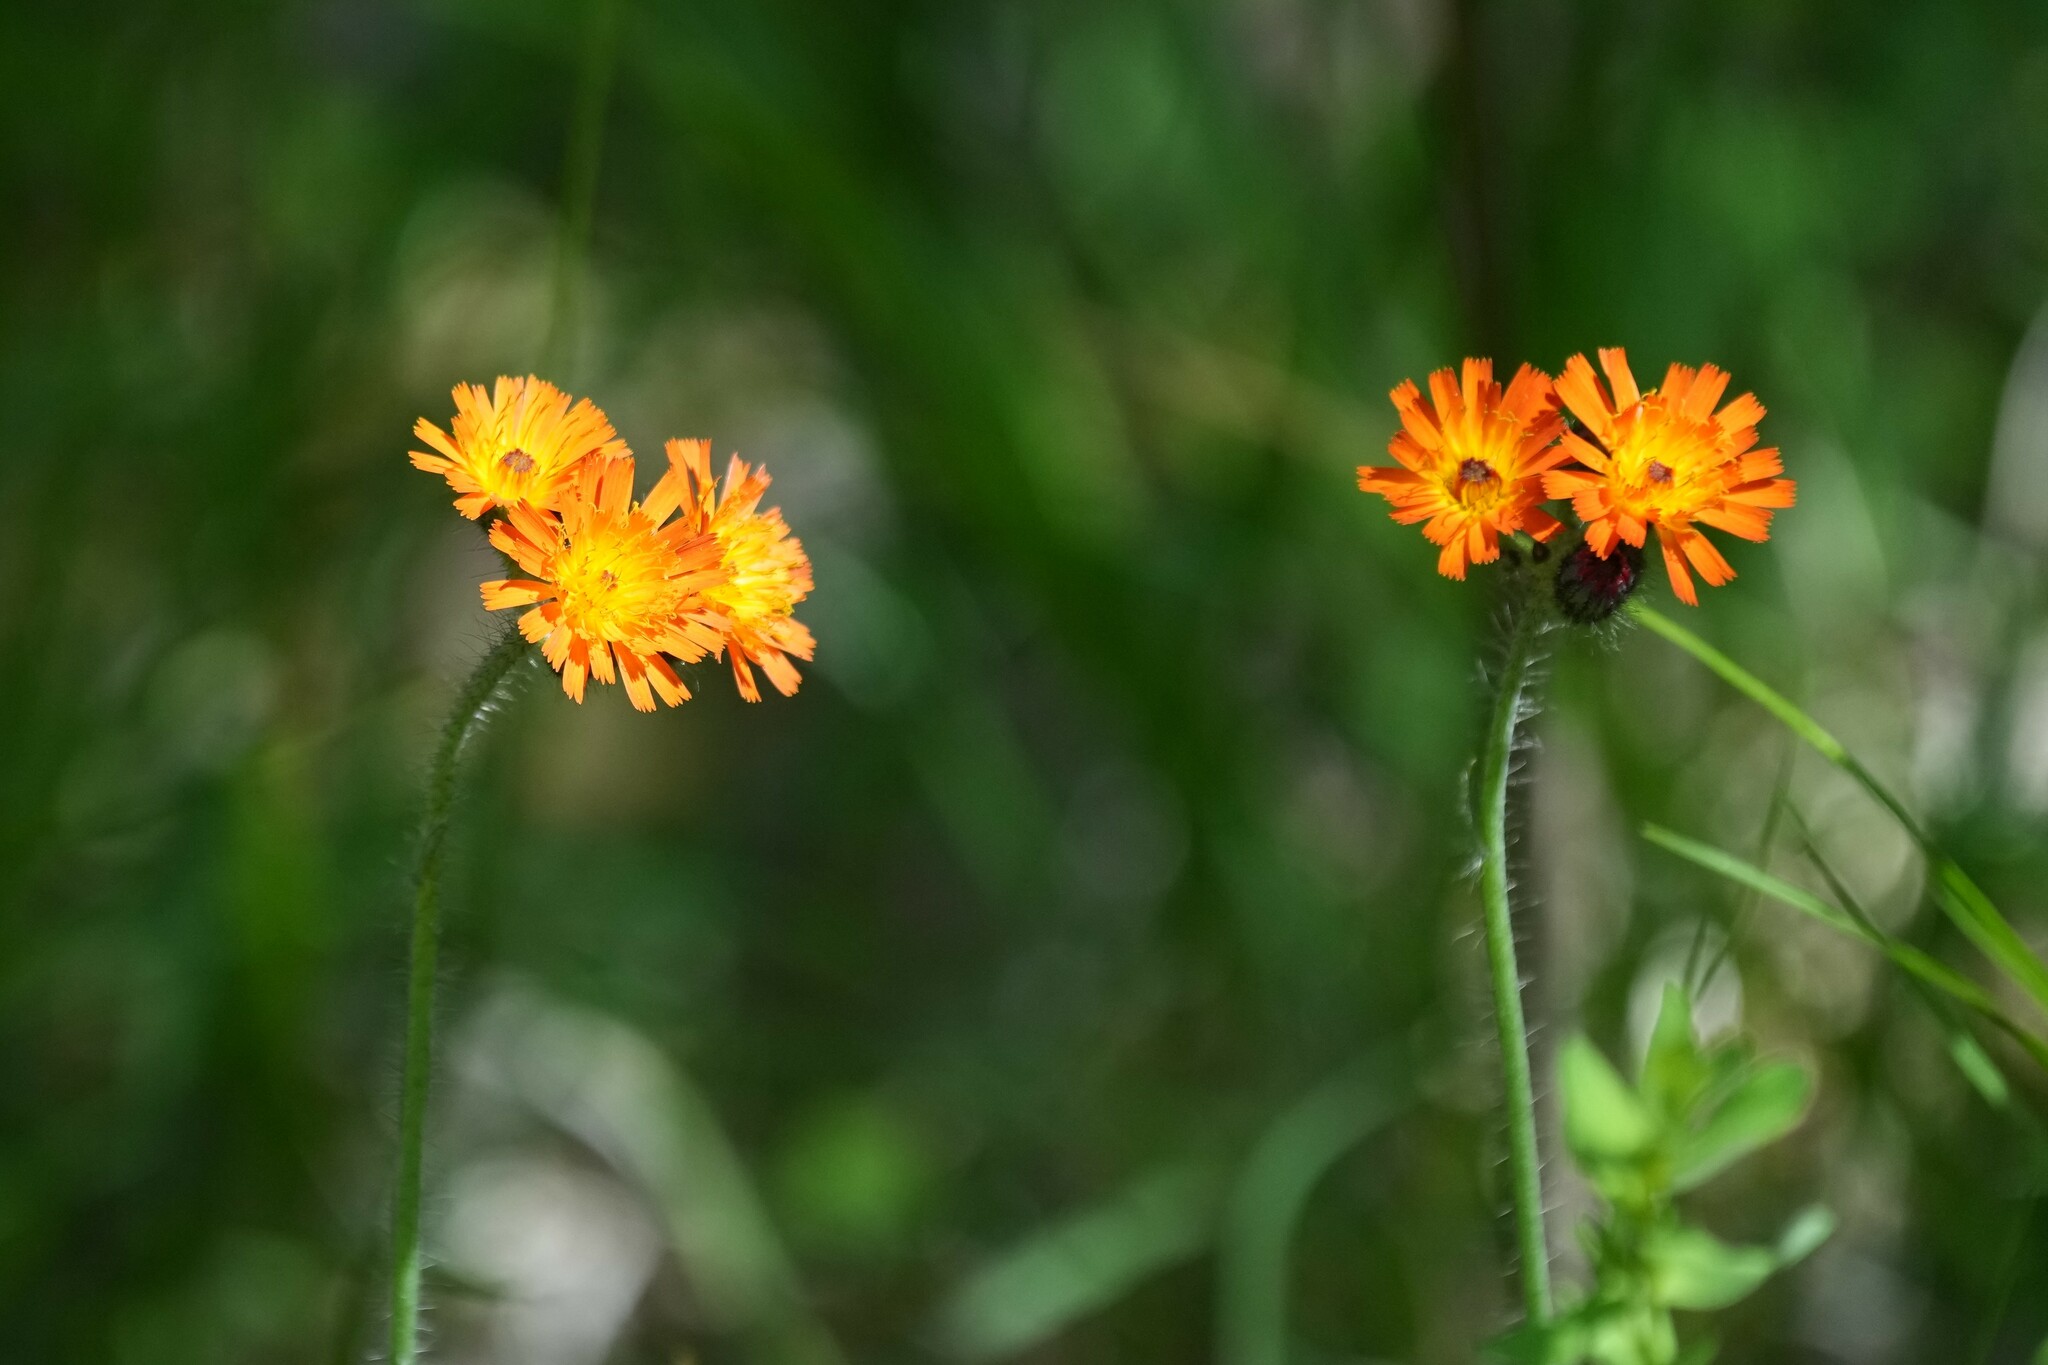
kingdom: Plantae
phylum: Tracheophyta
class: Magnoliopsida
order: Asterales
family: Asteraceae
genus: Pilosella
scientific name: Pilosella aurantiaca
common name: Fox-and-cubs
